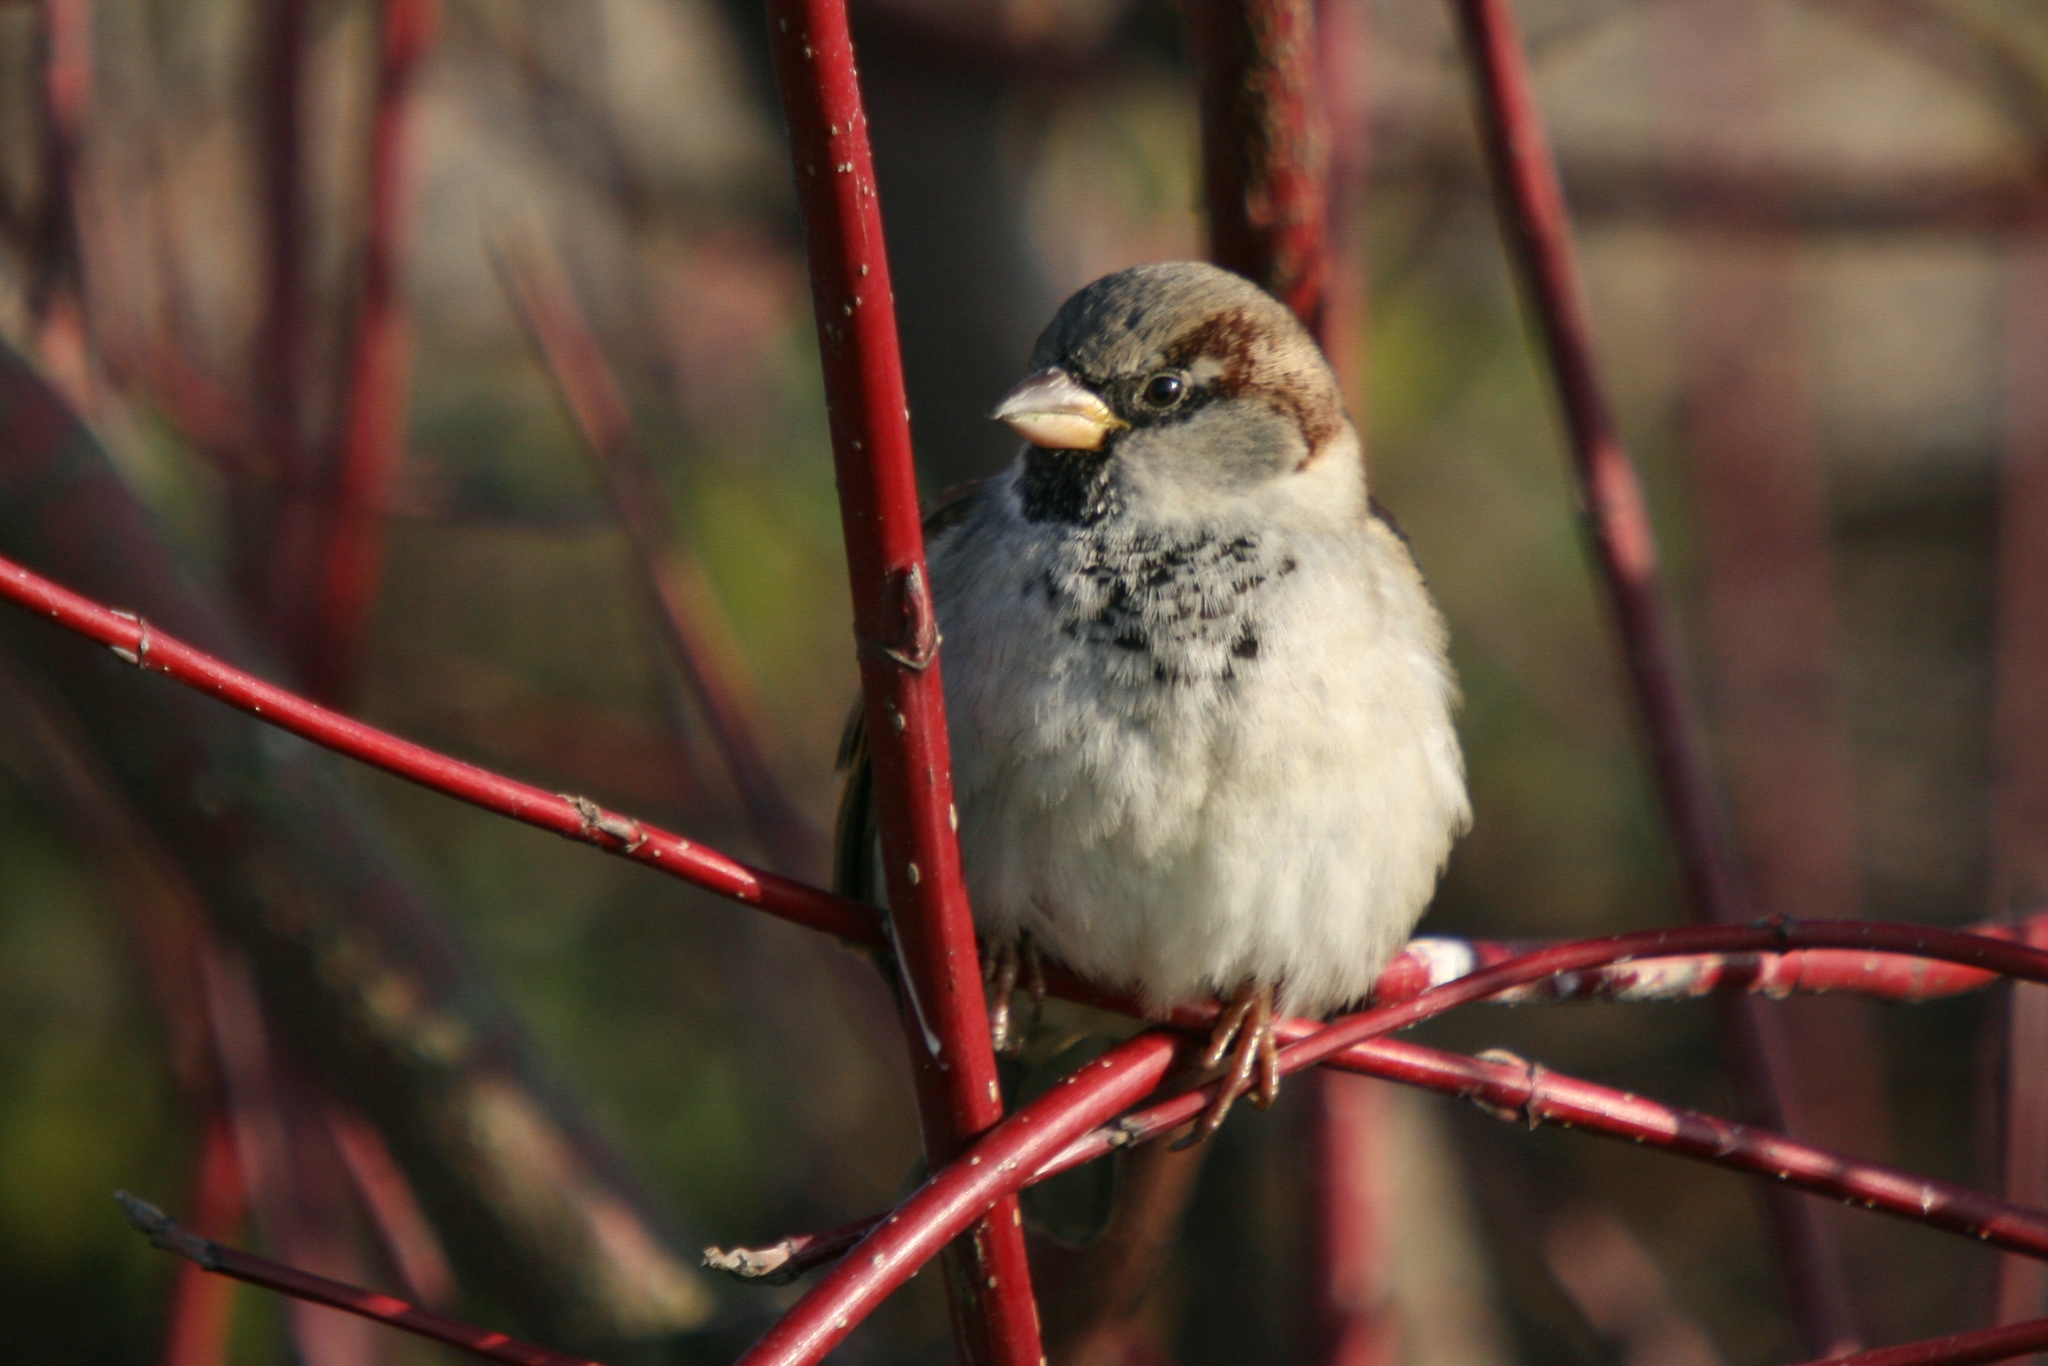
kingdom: Animalia
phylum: Chordata
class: Aves
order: Passeriformes
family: Passeridae
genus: Passer
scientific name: Passer domesticus
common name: House sparrow
